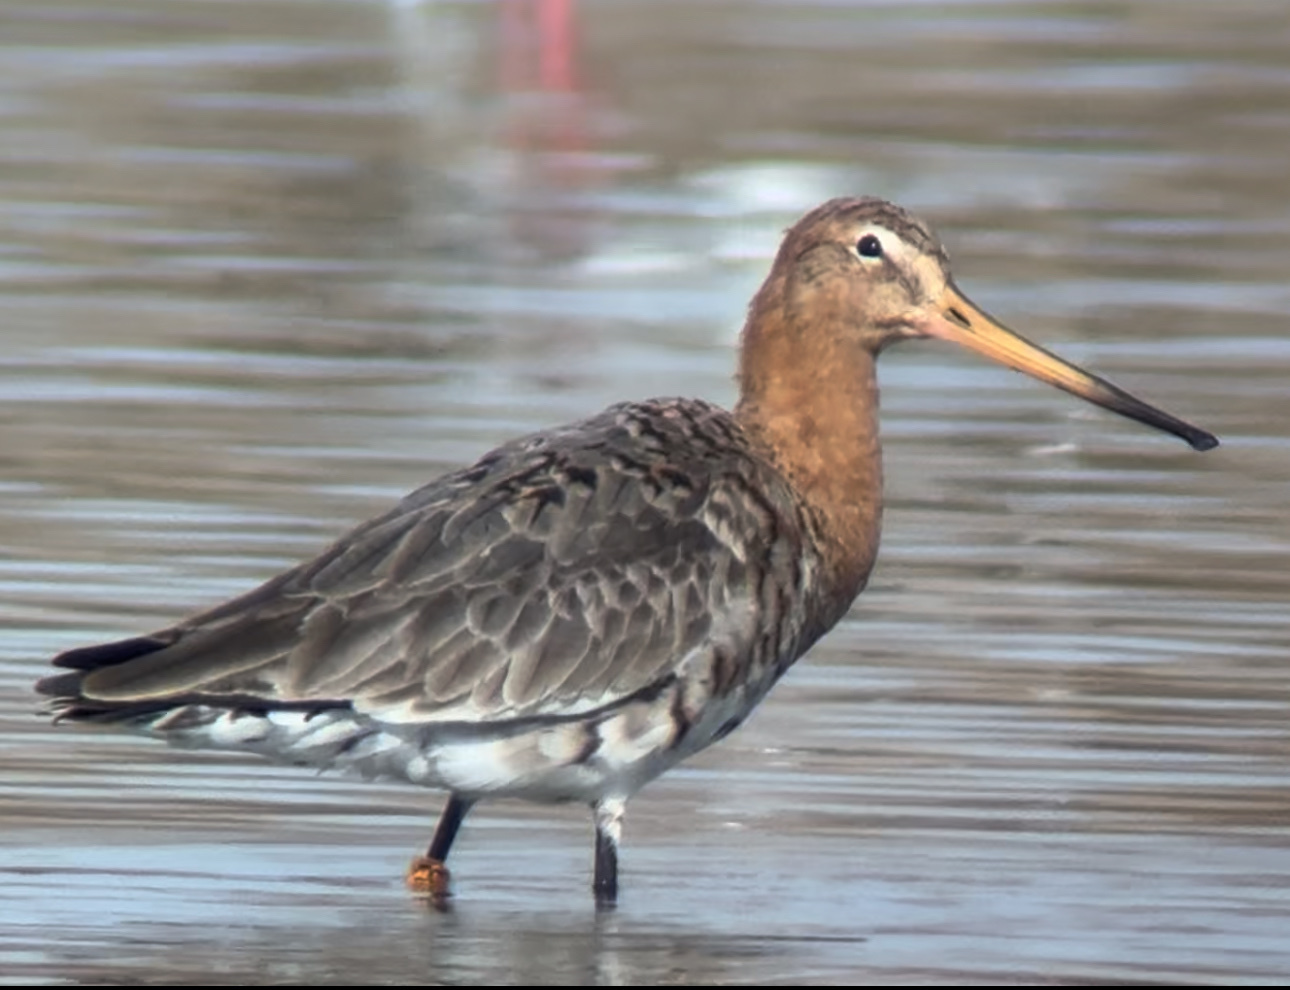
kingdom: Animalia
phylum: Chordata
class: Aves
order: Charadriiformes
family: Scolopacidae
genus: Limosa
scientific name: Limosa limosa
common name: Black-tailed godwit
